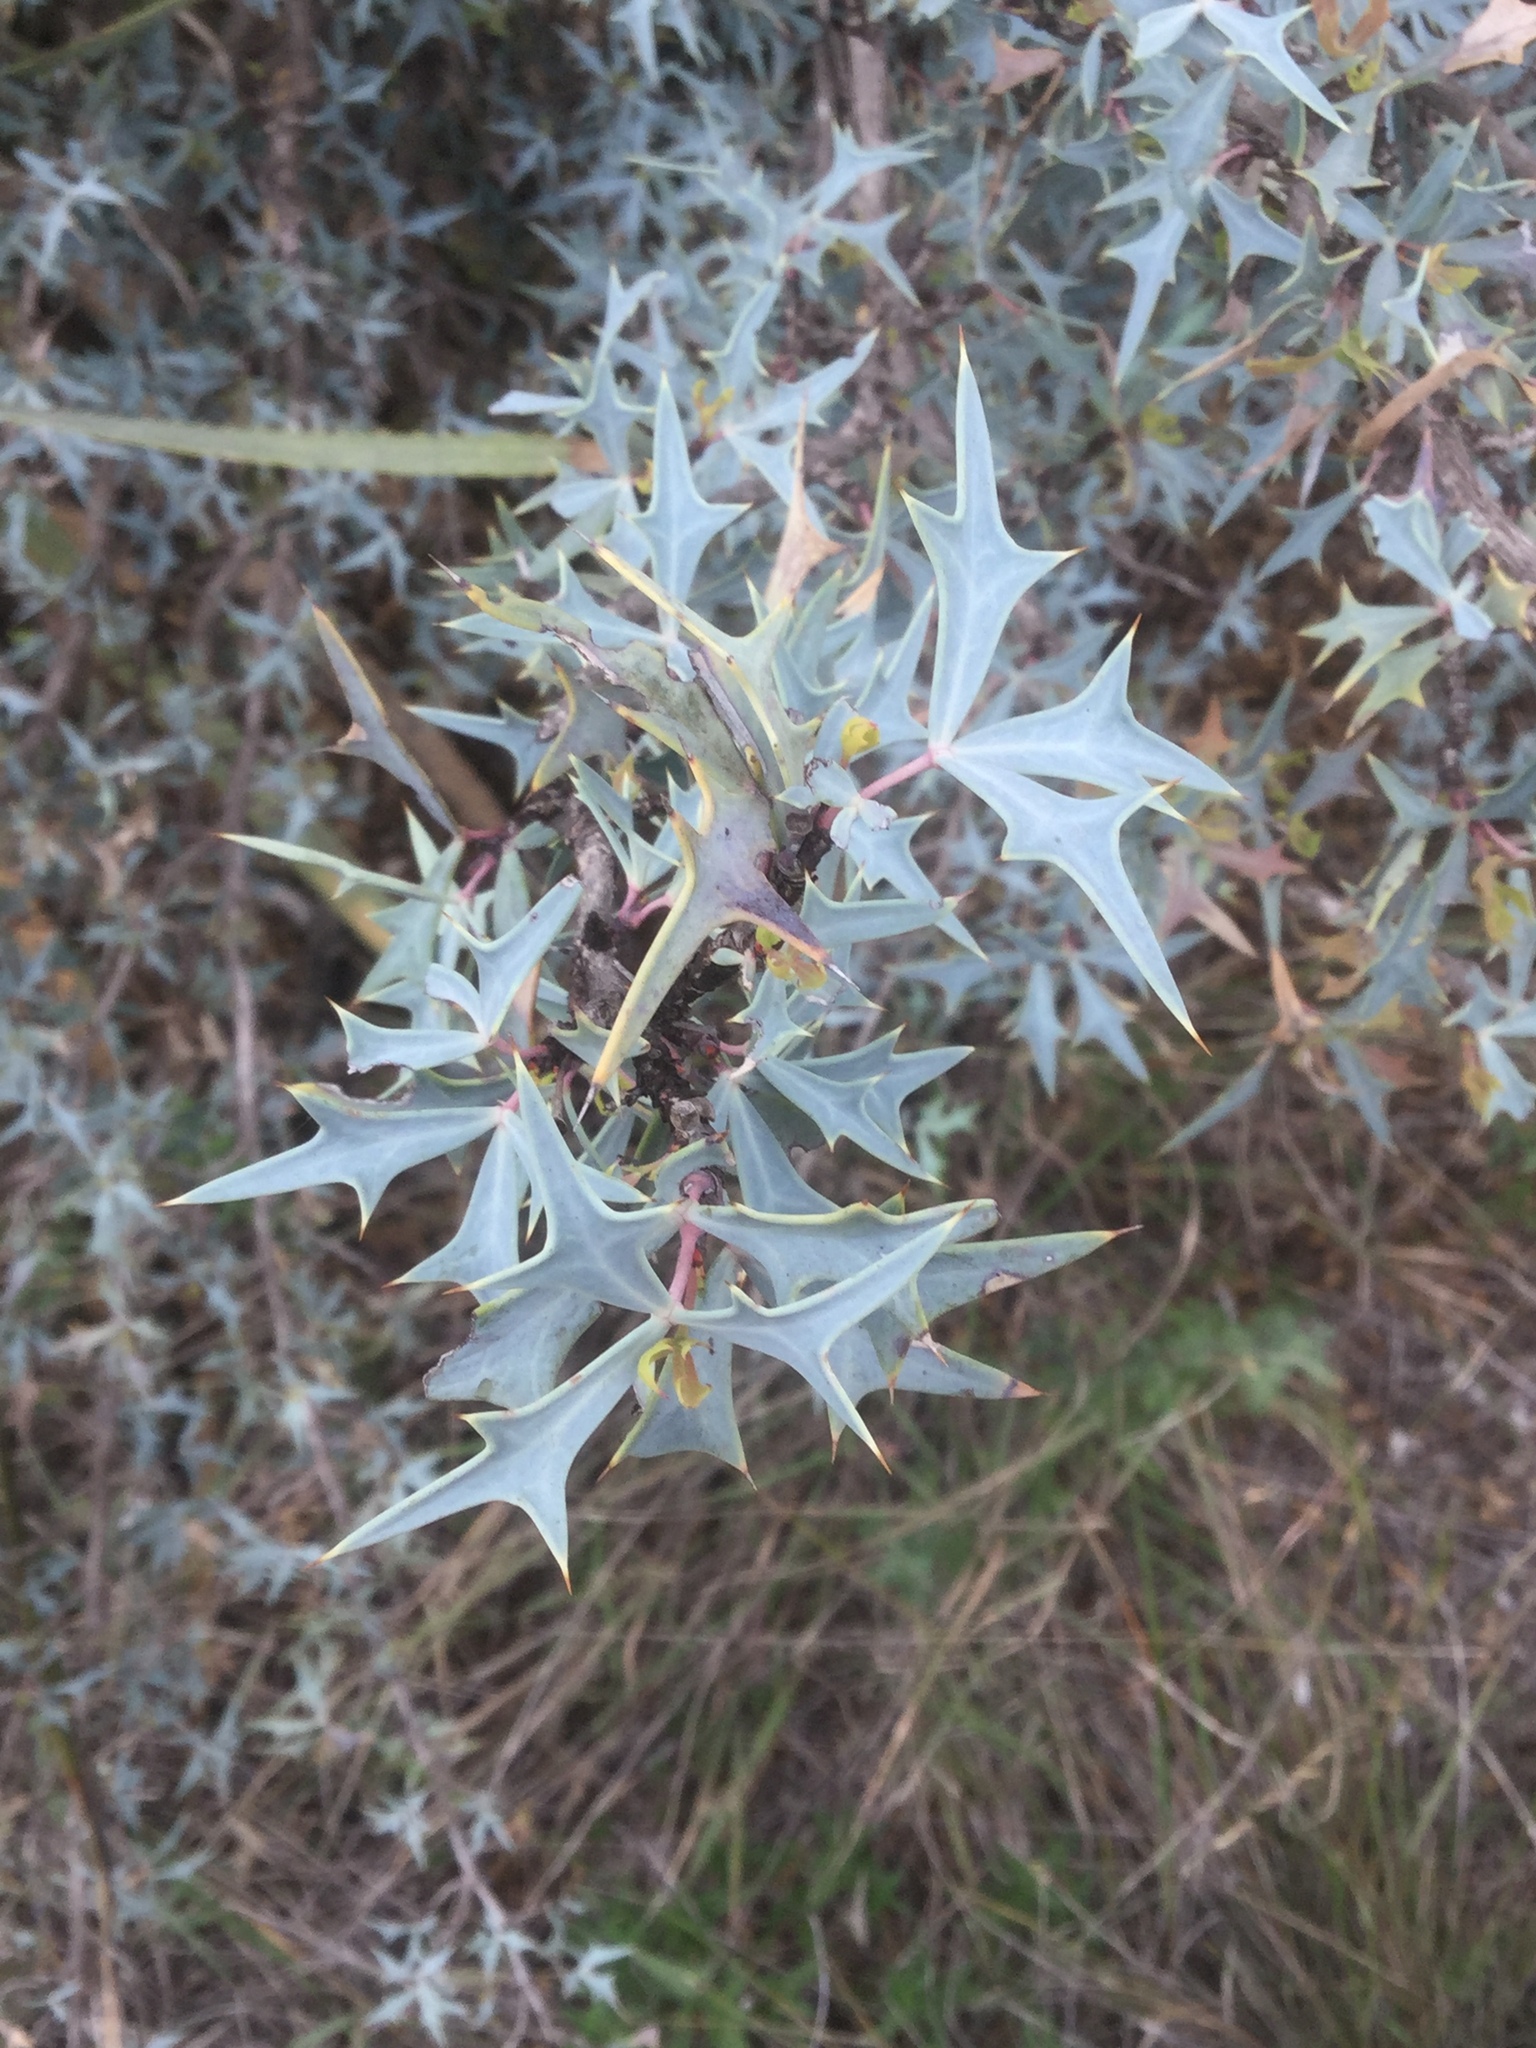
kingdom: Plantae
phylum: Tracheophyta
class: Magnoliopsida
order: Ranunculales
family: Berberidaceae
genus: Alloberberis
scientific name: Alloberberis trifoliolata
